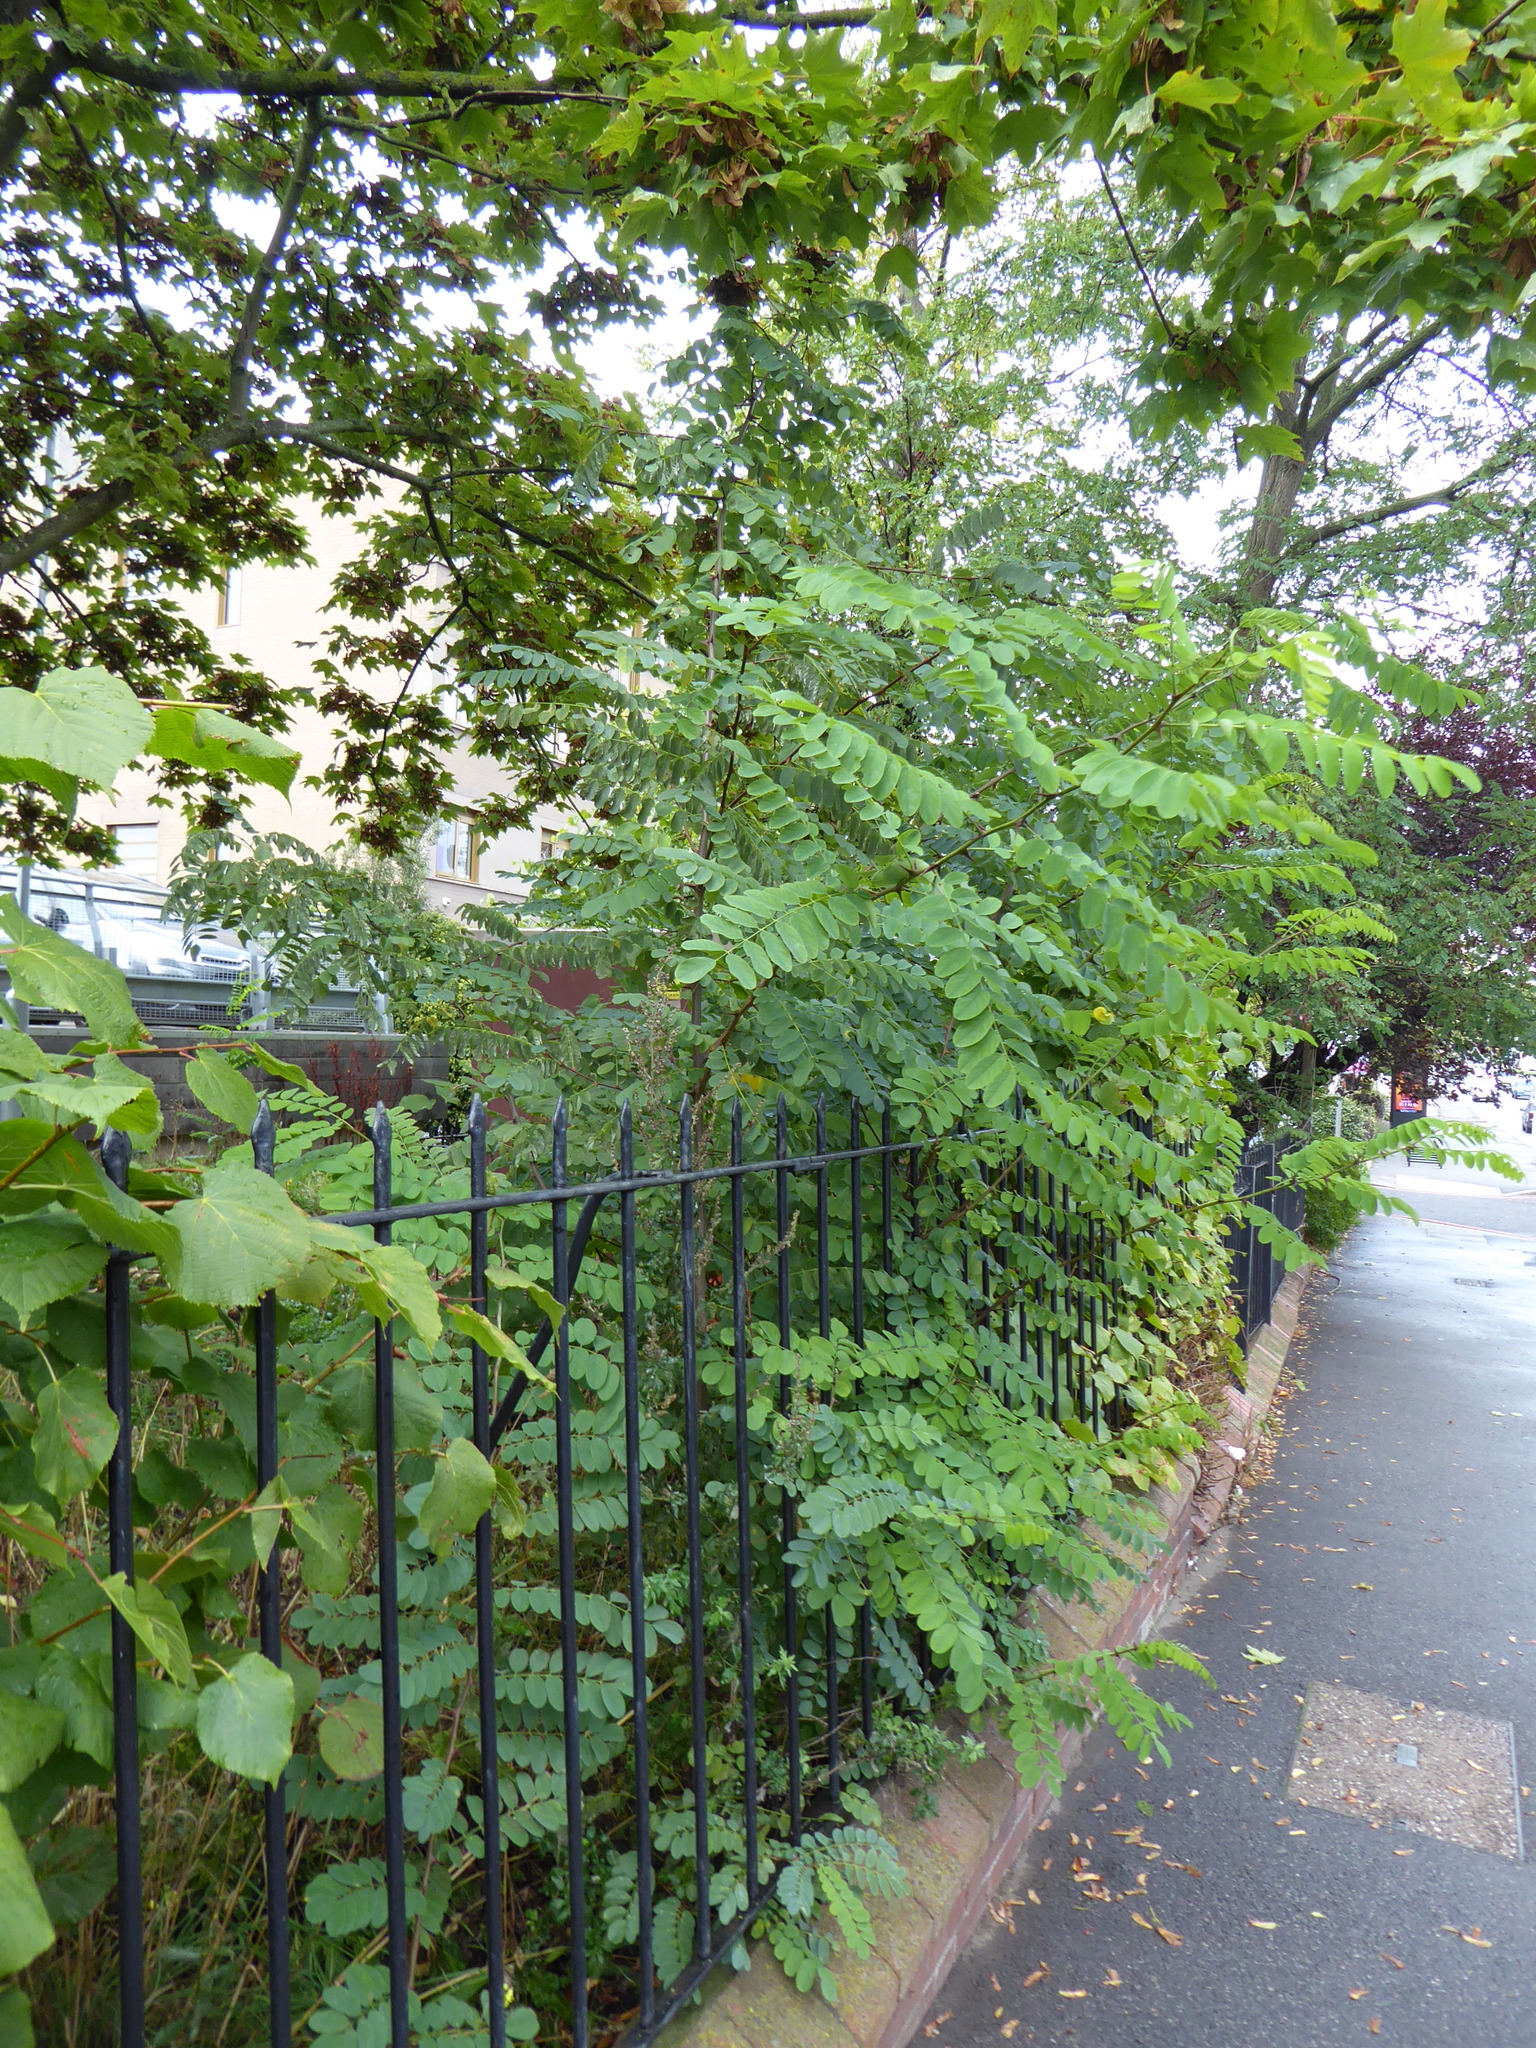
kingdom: Plantae
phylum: Tracheophyta
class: Magnoliopsida
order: Fabales
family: Fabaceae
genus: Robinia
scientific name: Robinia pseudoacacia
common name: Black locust
